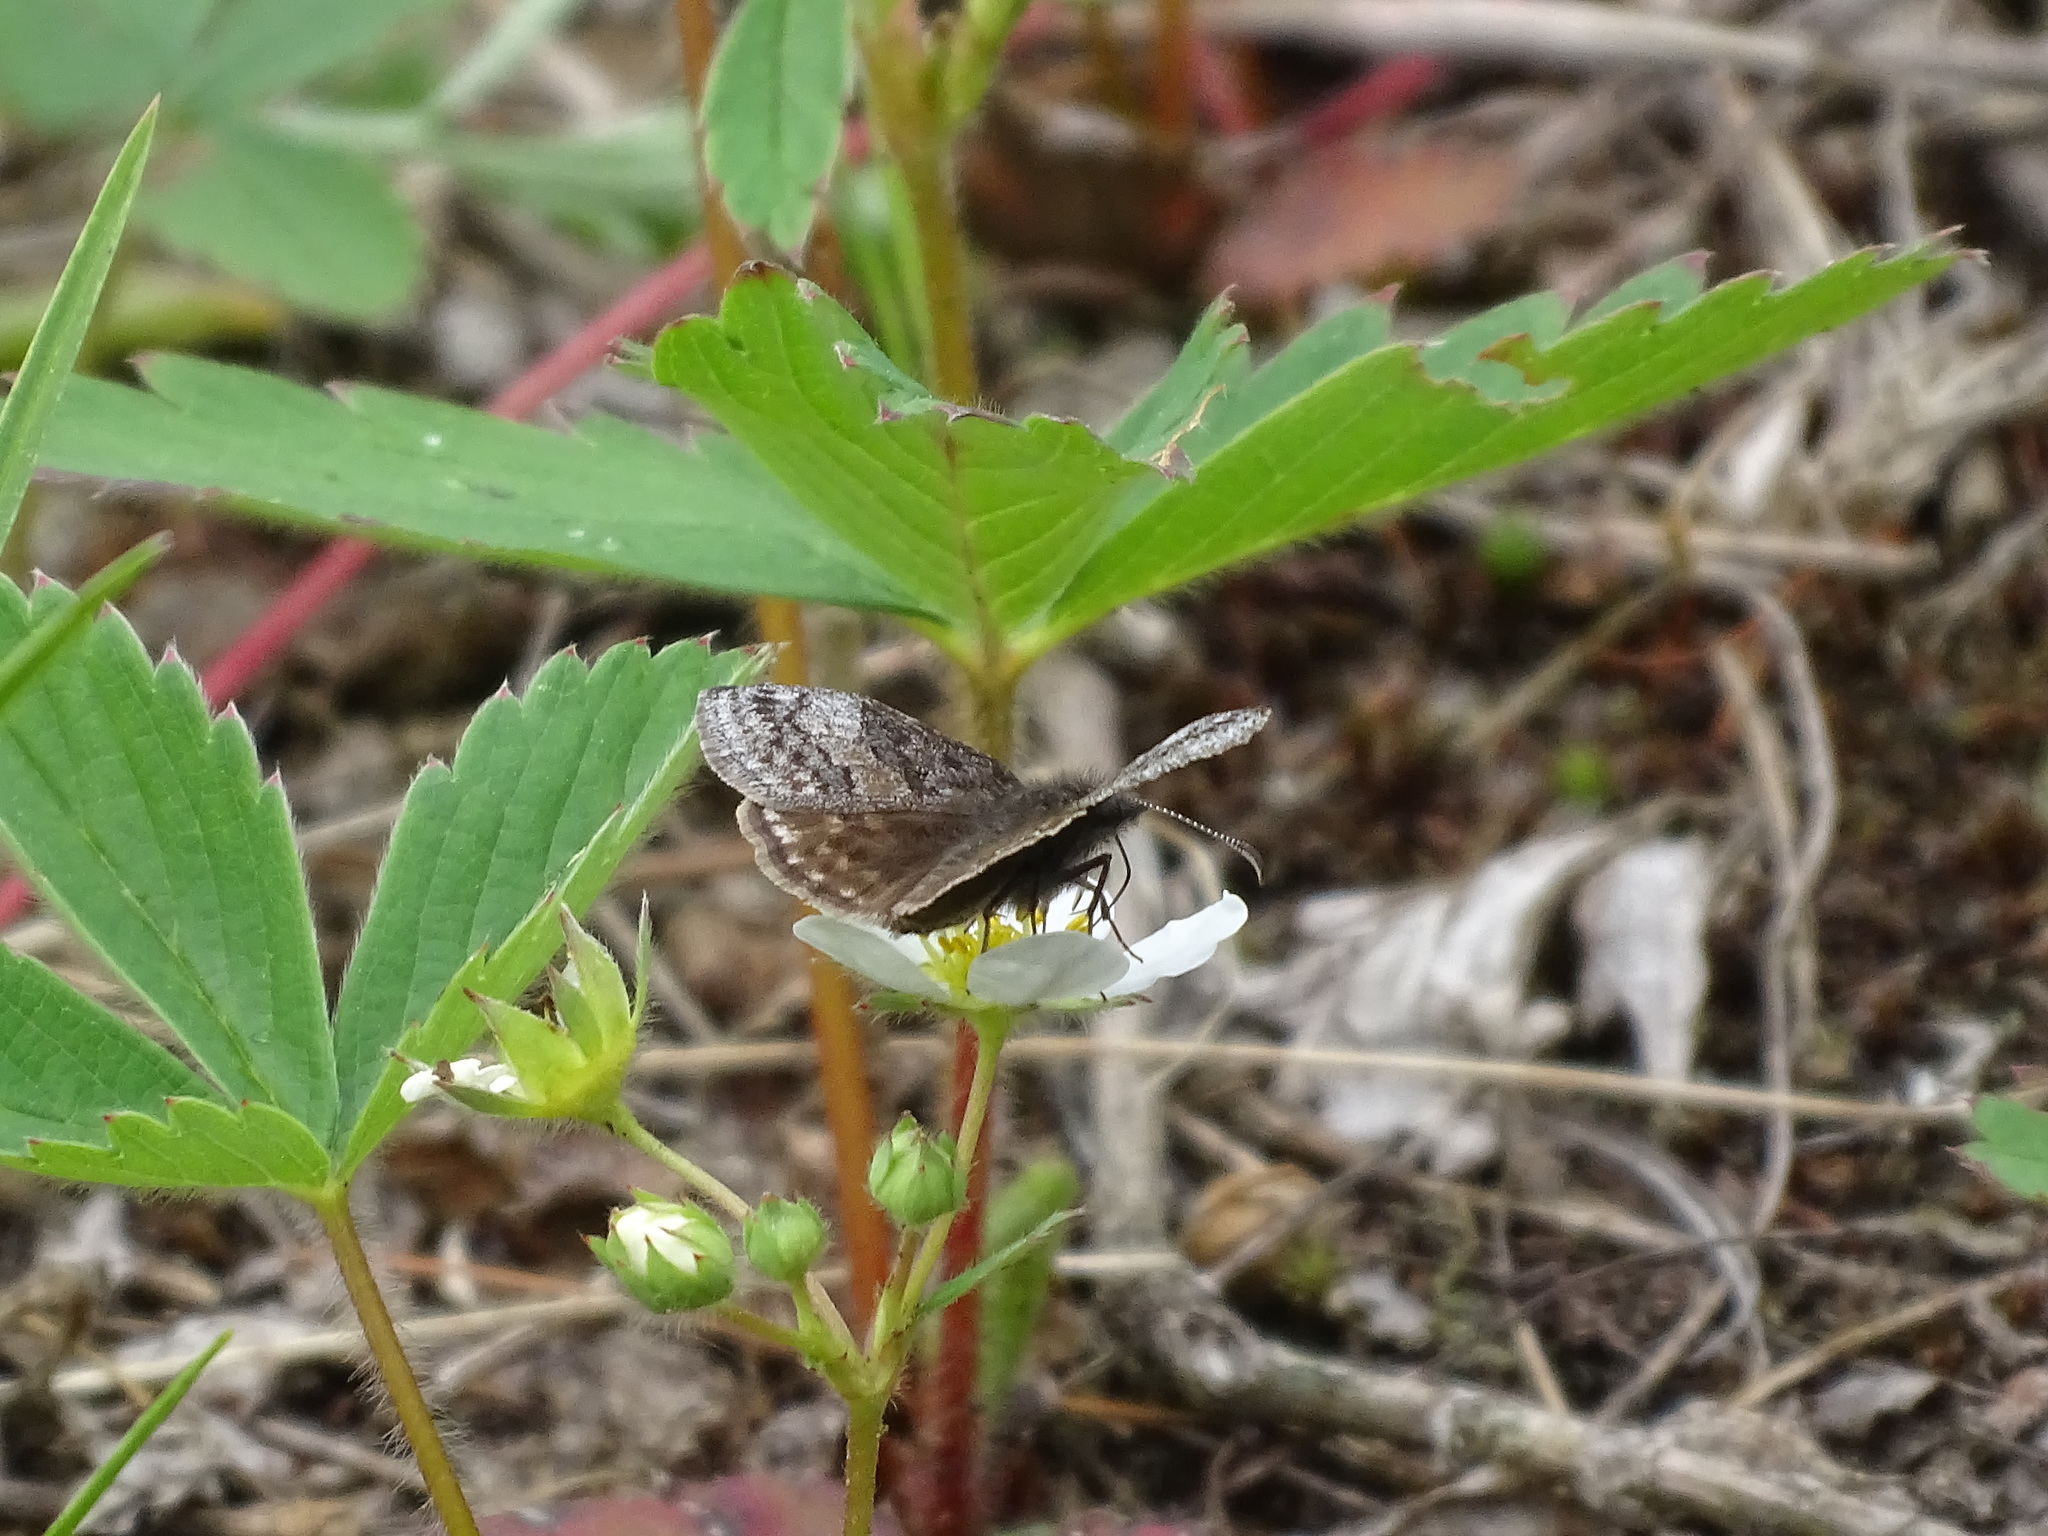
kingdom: Animalia
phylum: Arthropoda
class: Insecta
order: Lepidoptera
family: Hesperiidae
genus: Erynnis
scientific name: Erynnis icelus
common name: Dreamy duskywing
